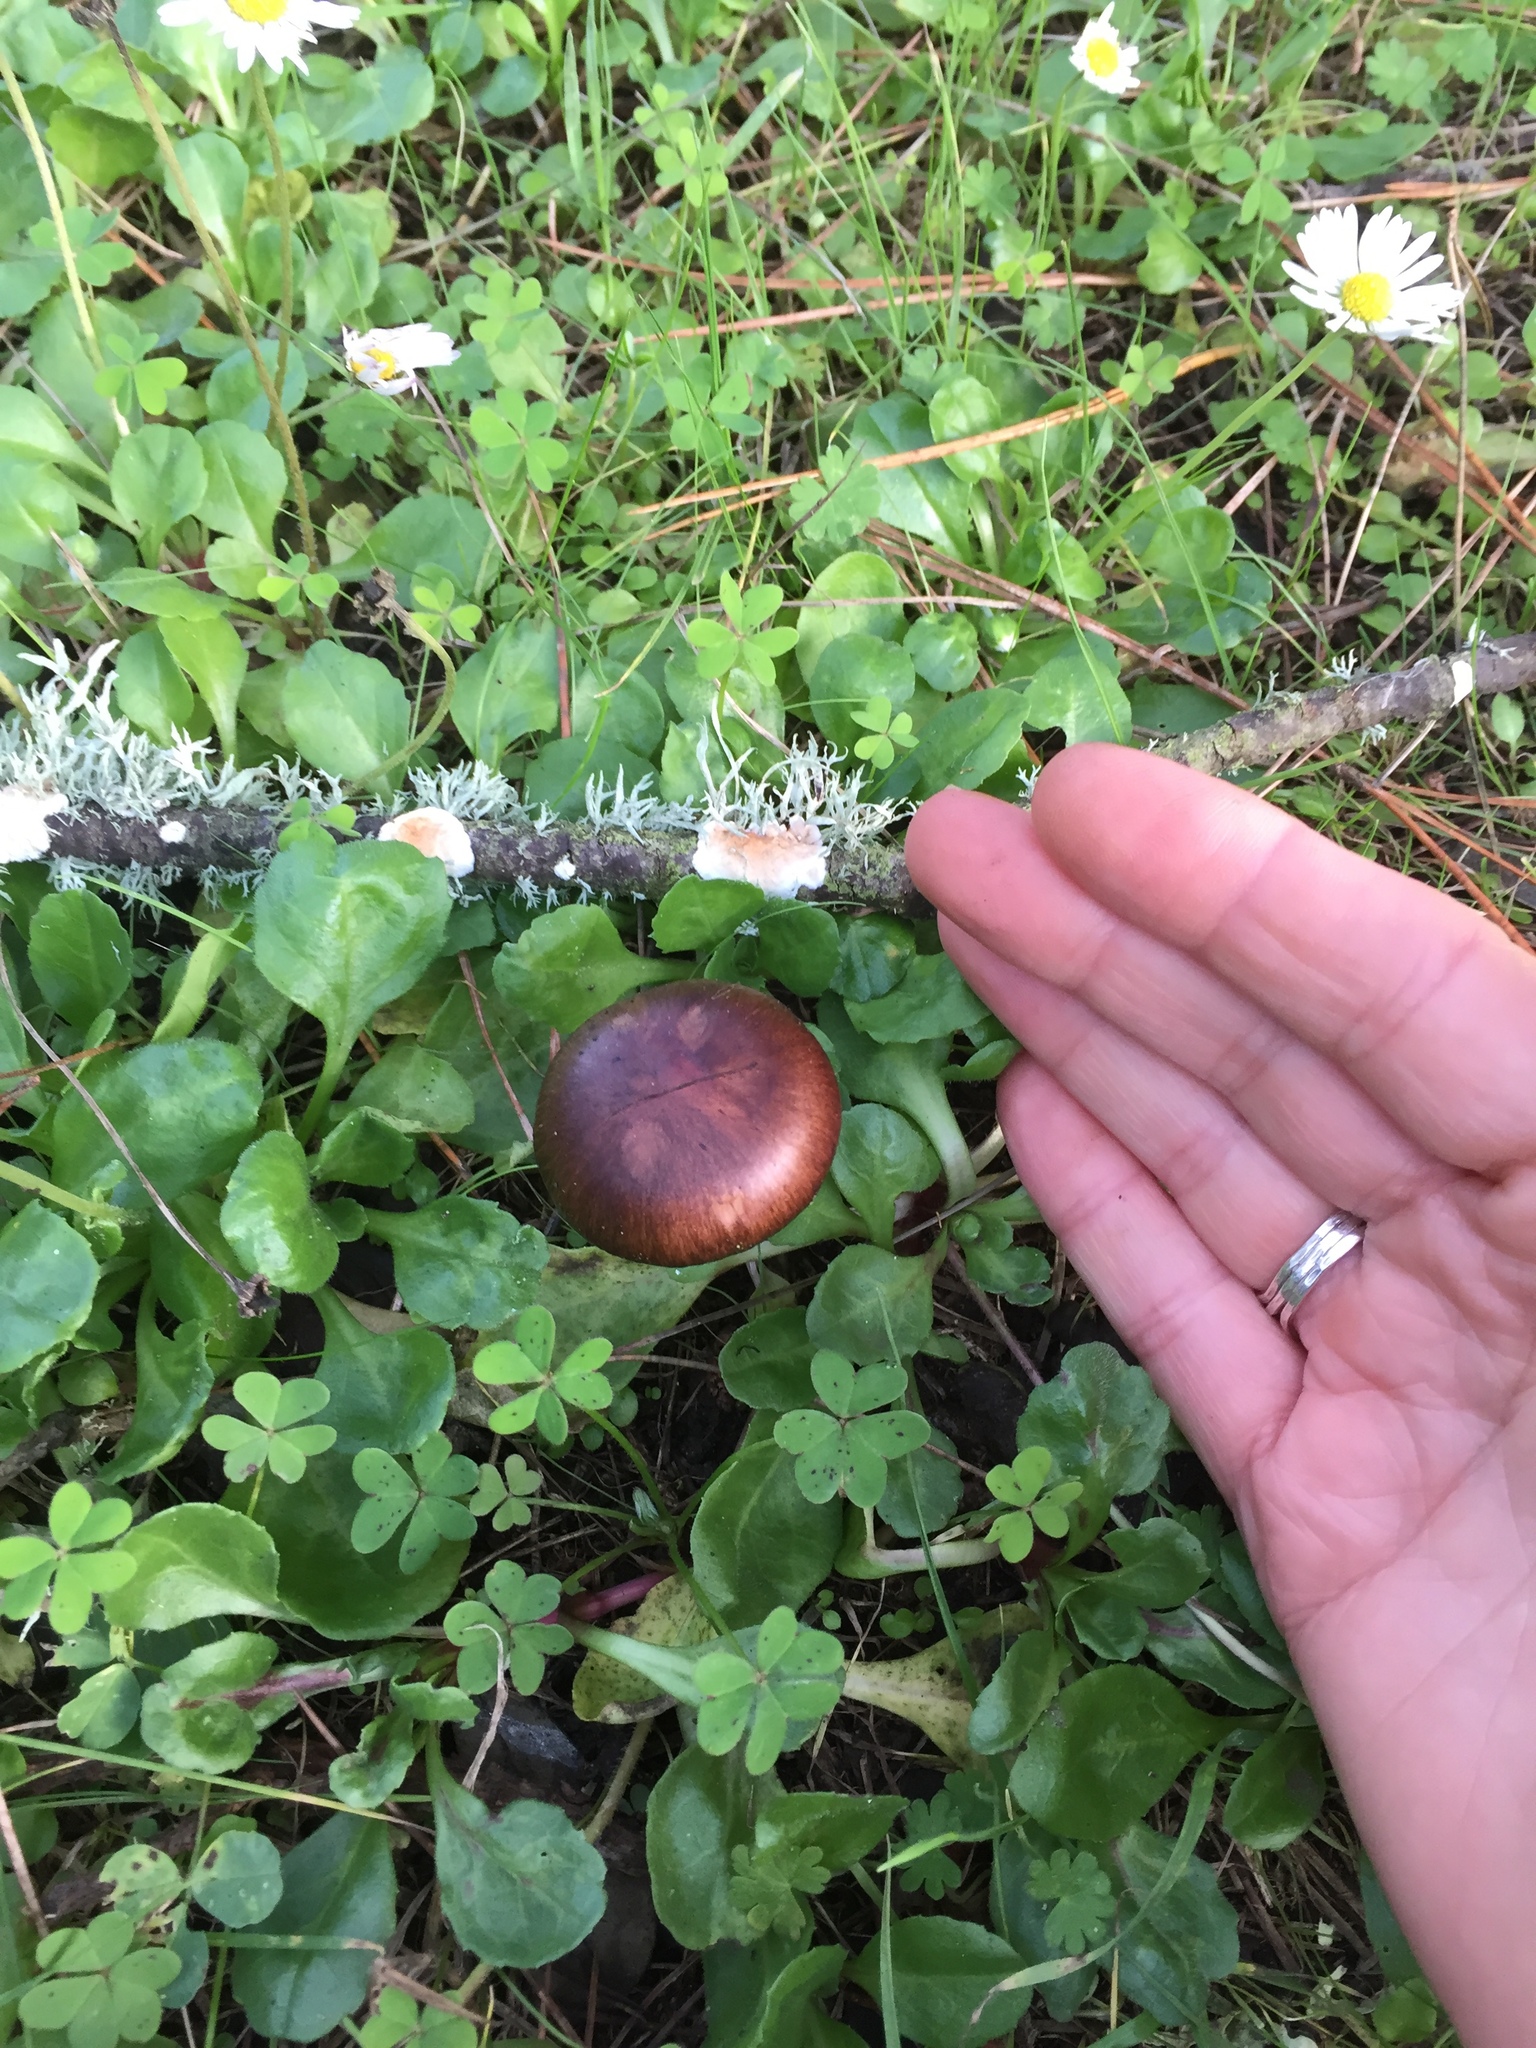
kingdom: Fungi
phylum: Basidiomycota
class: Agaricomycetes
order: Boletales
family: Gomphidiaceae
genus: Chroogomphus
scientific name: Chroogomphus vinicolor
